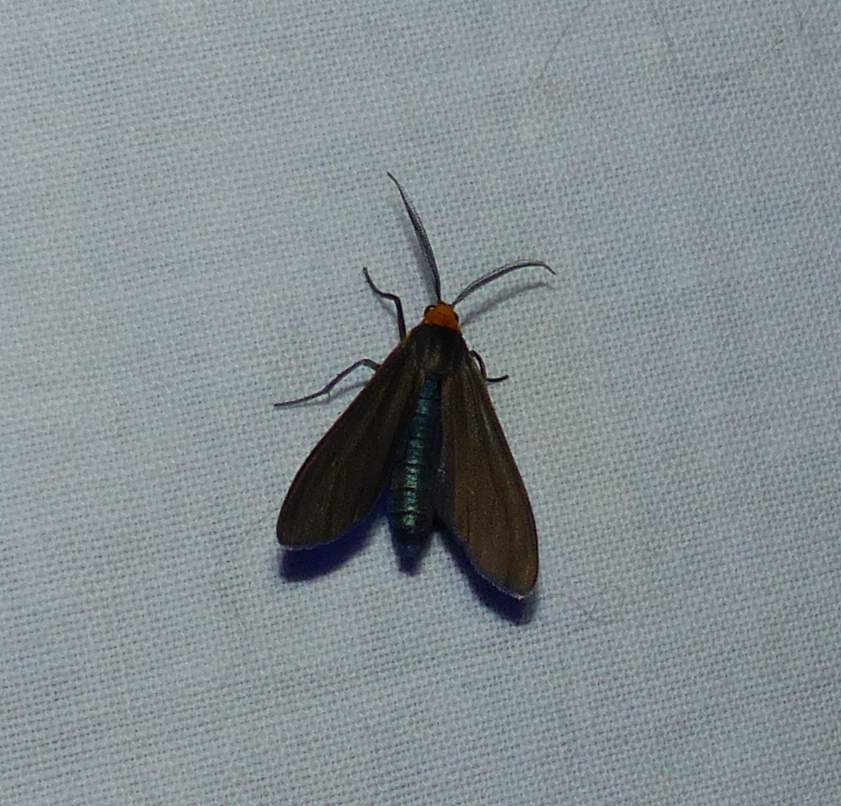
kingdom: Animalia
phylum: Arthropoda
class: Insecta
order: Lepidoptera
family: Erebidae
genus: Cisseps
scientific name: Cisseps fulvicollis
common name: Yellow-collared scape moth
